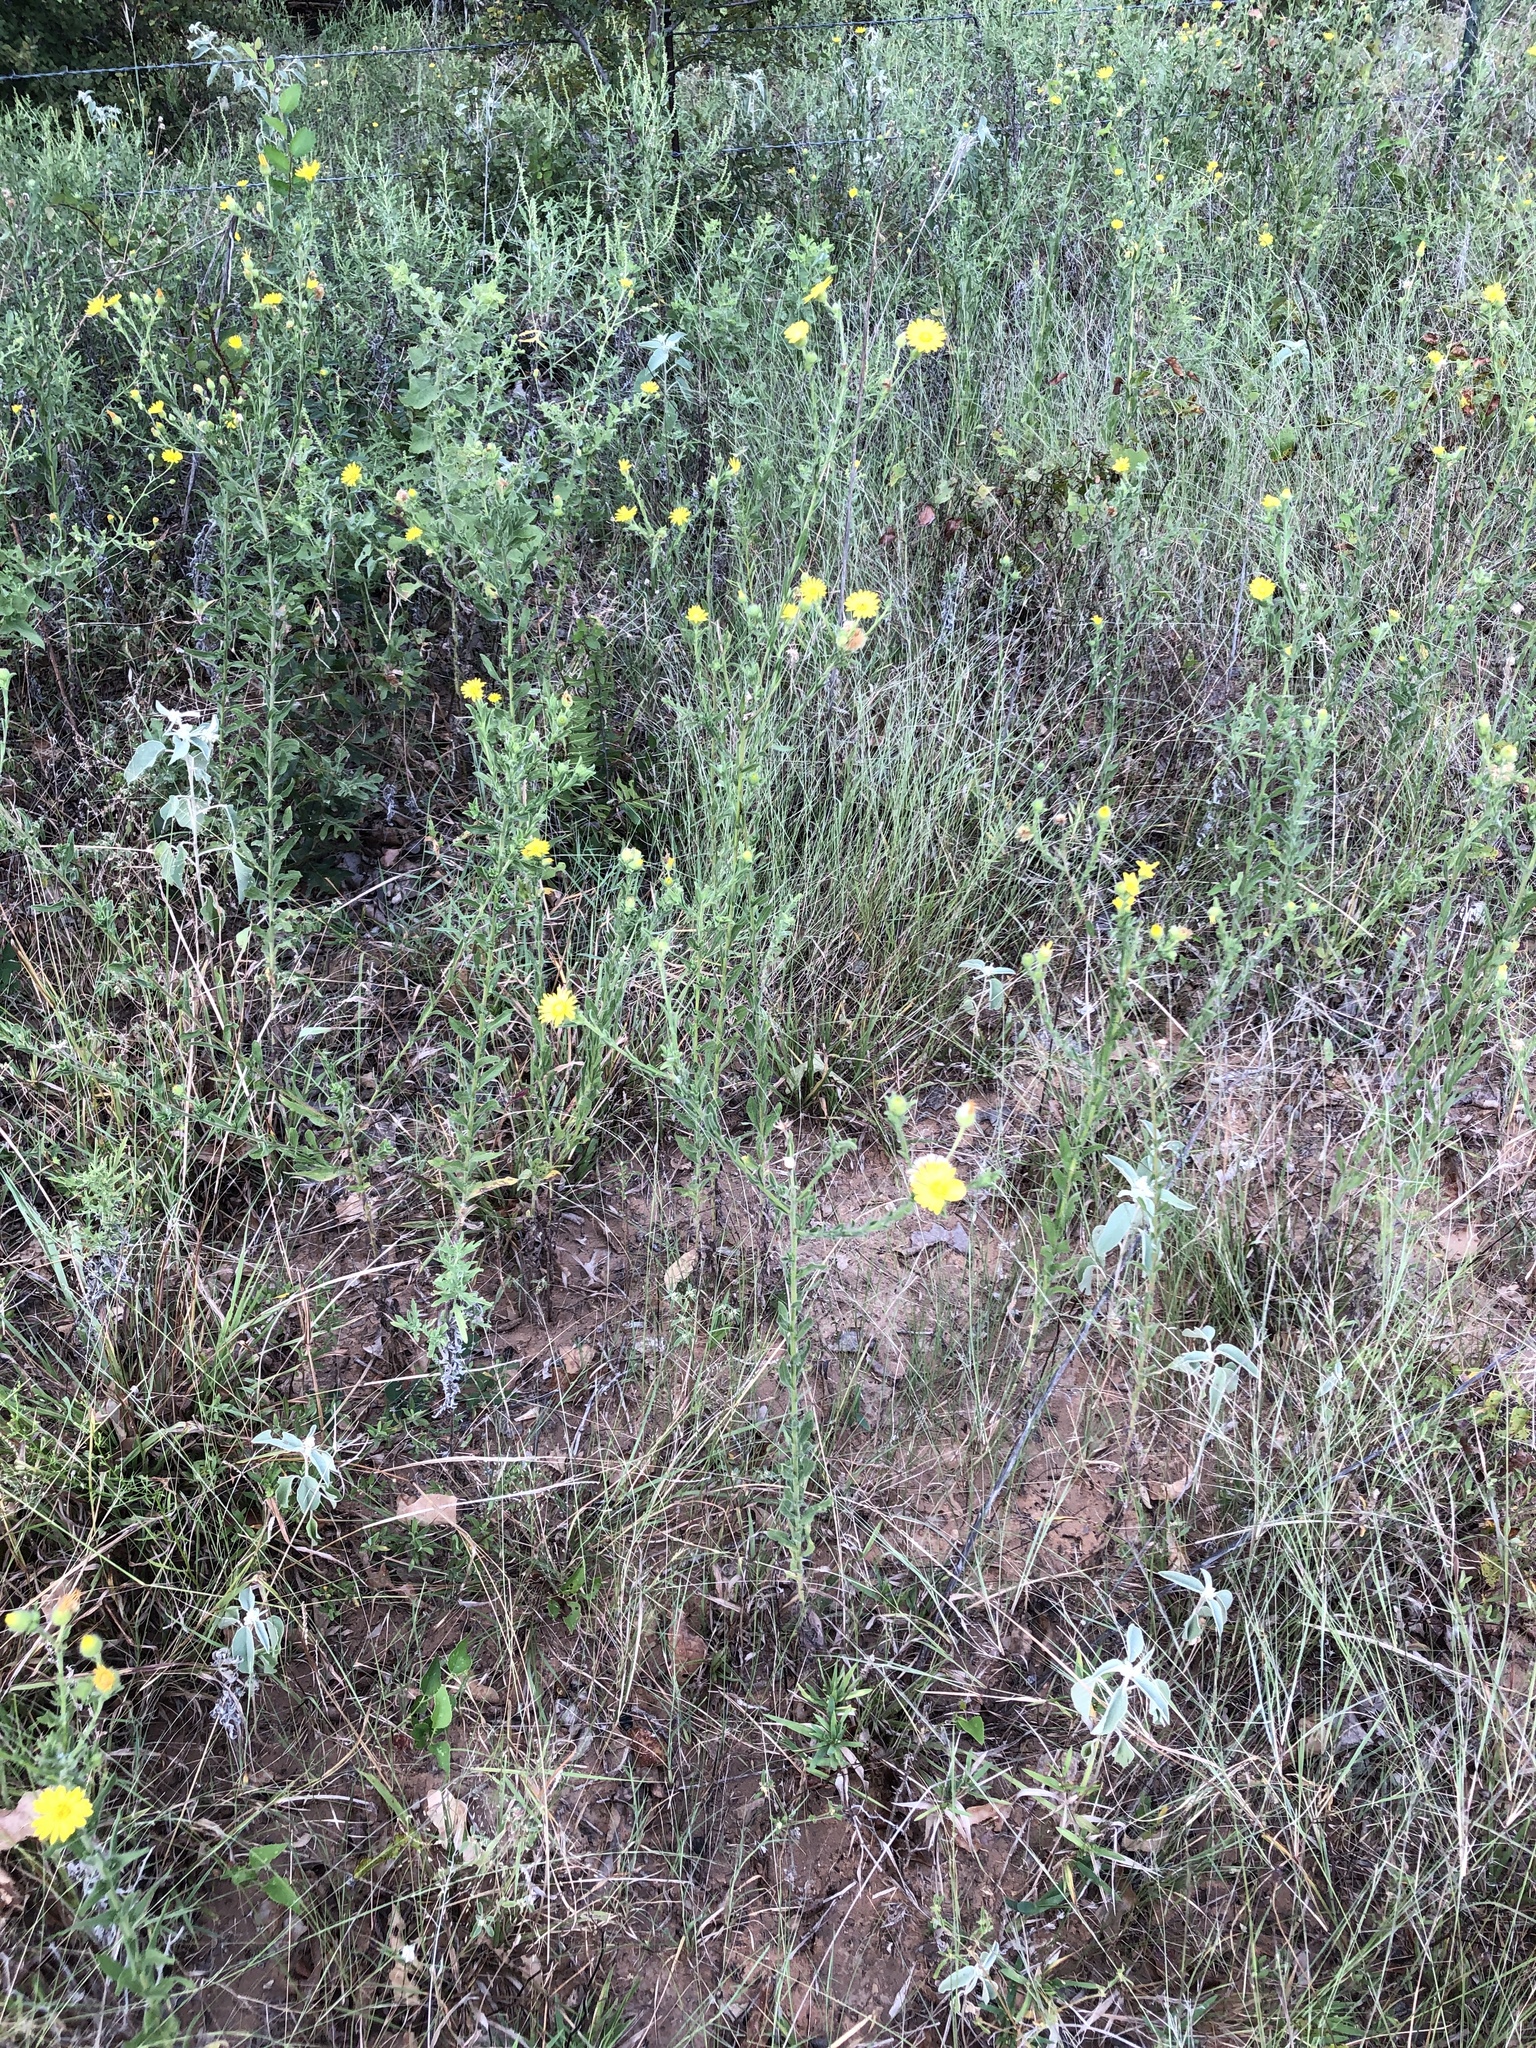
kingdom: Plantae
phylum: Tracheophyta
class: Magnoliopsida
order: Asterales
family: Asteraceae
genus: Bradburia
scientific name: Bradburia pilosa
